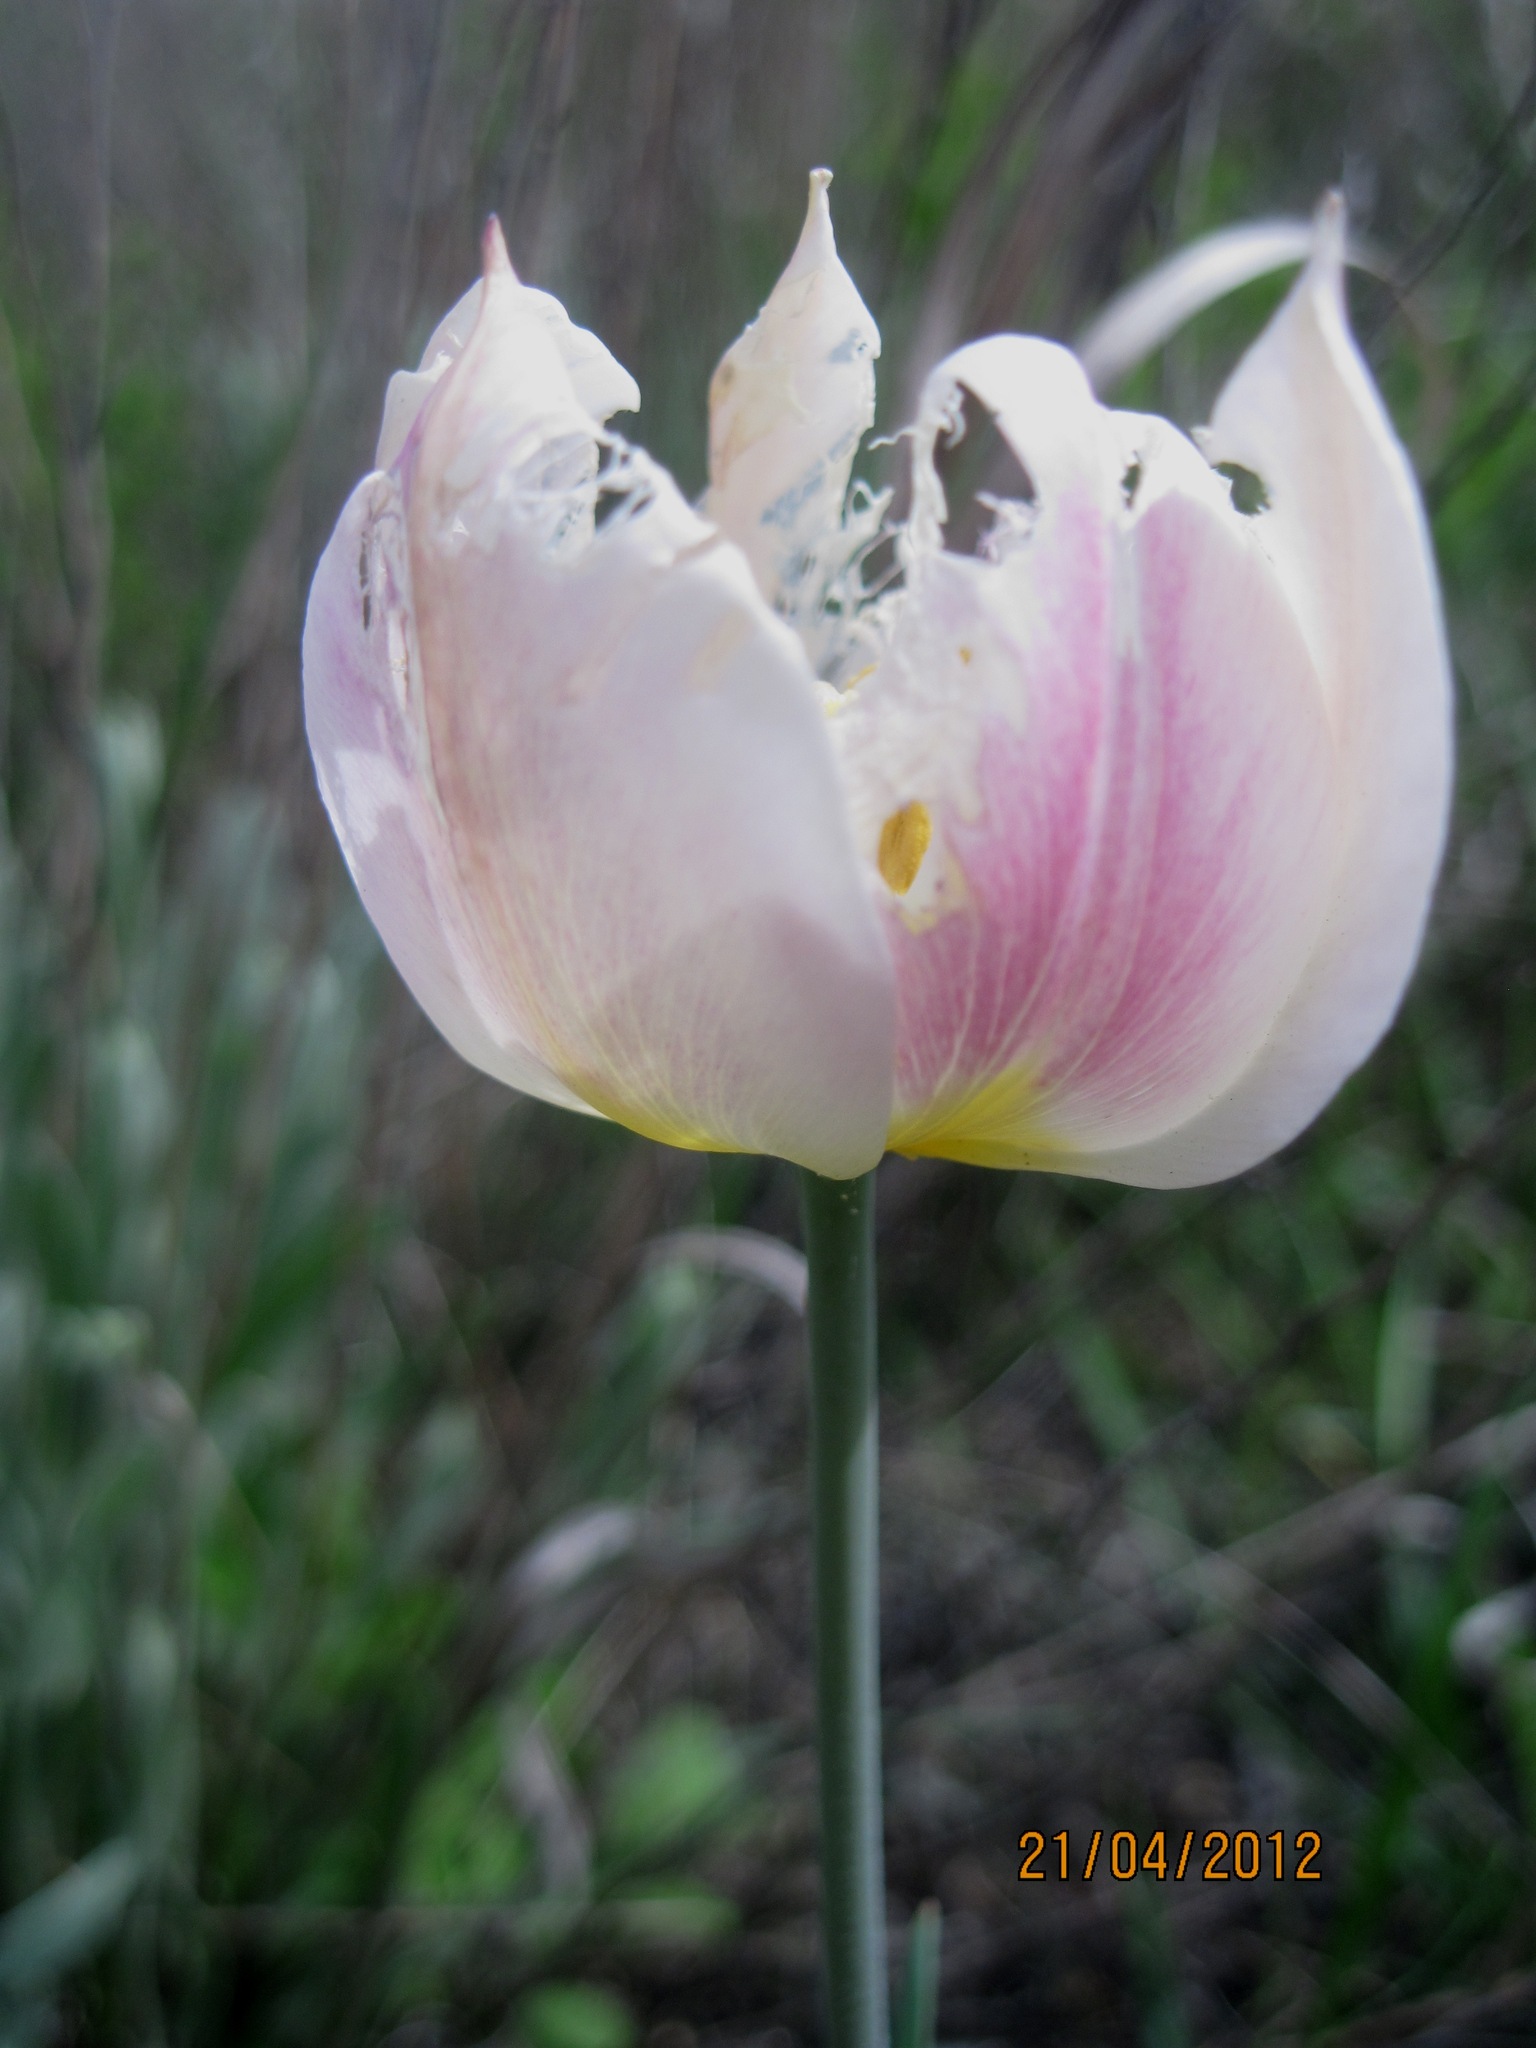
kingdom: Plantae
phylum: Tracheophyta
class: Liliopsida
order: Liliales
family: Liliaceae
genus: Tulipa
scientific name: Tulipa suaveolens
